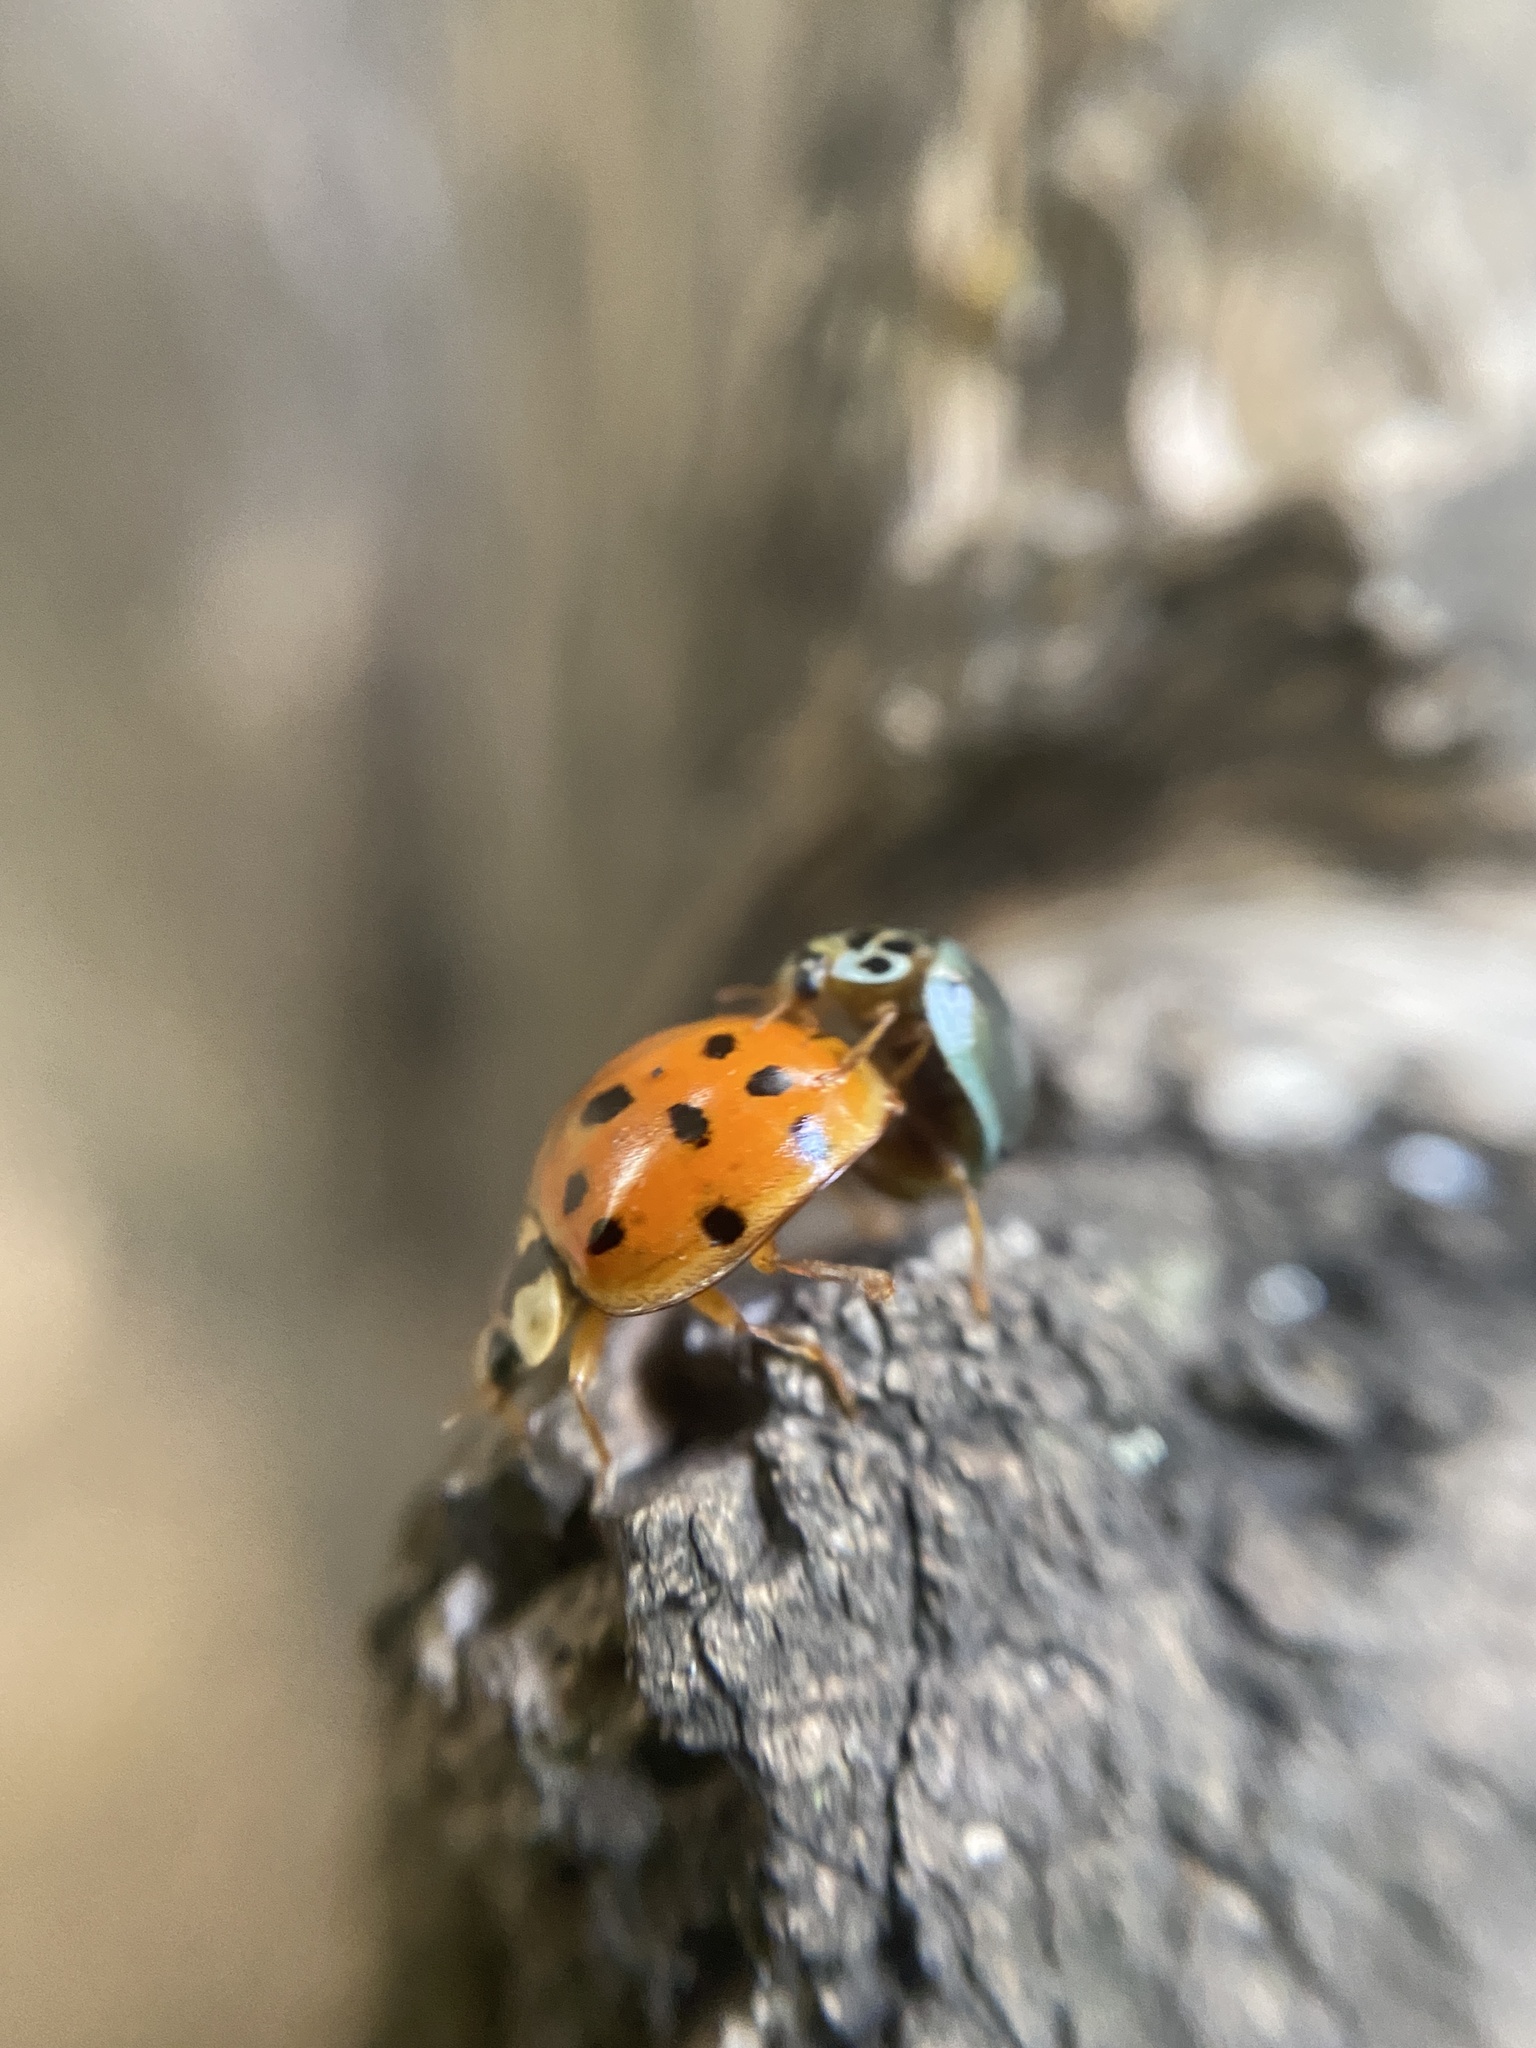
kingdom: Animalia
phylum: Arthropoda
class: Insecta
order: Coleoptera
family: Coccinellidae
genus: Harmonia
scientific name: Harmonia axyridis
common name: Harlequin ladybird
